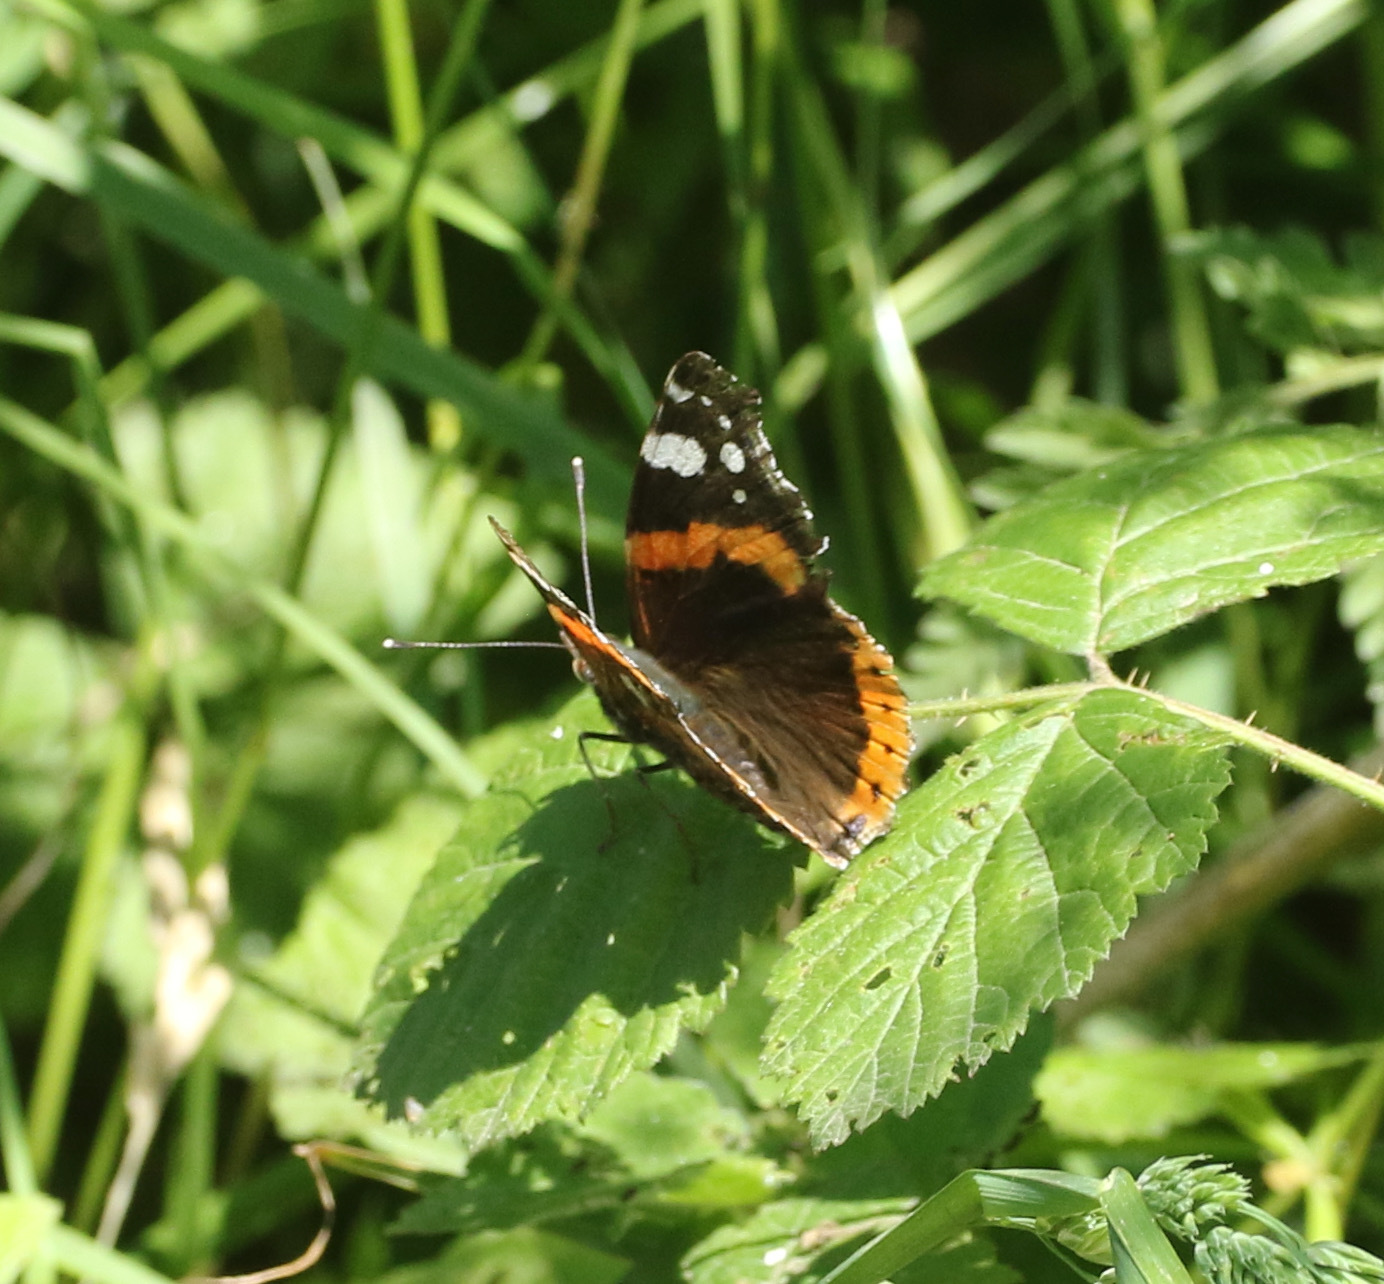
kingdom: Animalia
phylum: Arthropoda
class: Insecta
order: Lepidoptera
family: Nymphalidae
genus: Vanessa
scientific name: Vanessa atalanta
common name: Red admiral
